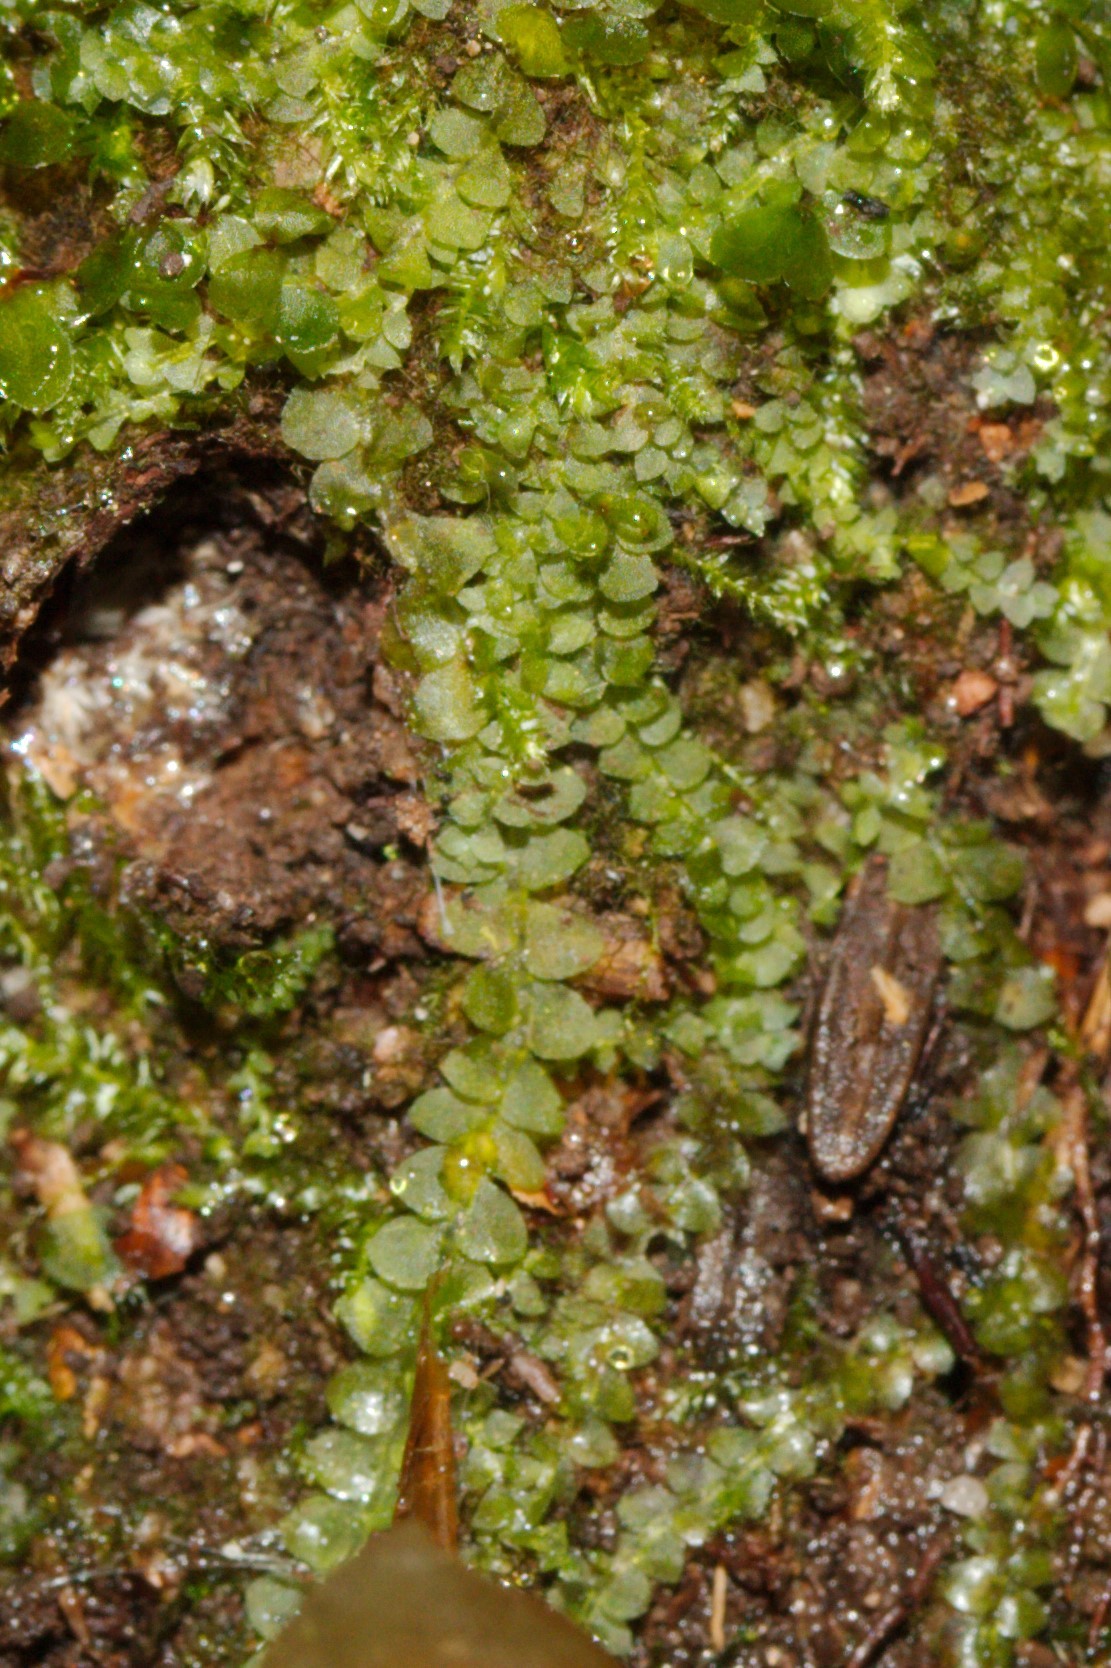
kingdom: Plantae
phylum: Marchantiophyta
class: Jungermanniopsida
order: Jungermanniales
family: Calypogeiaceae
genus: Calypogeia
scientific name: Calypogeia integristipula
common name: Meylan s pouchwort
